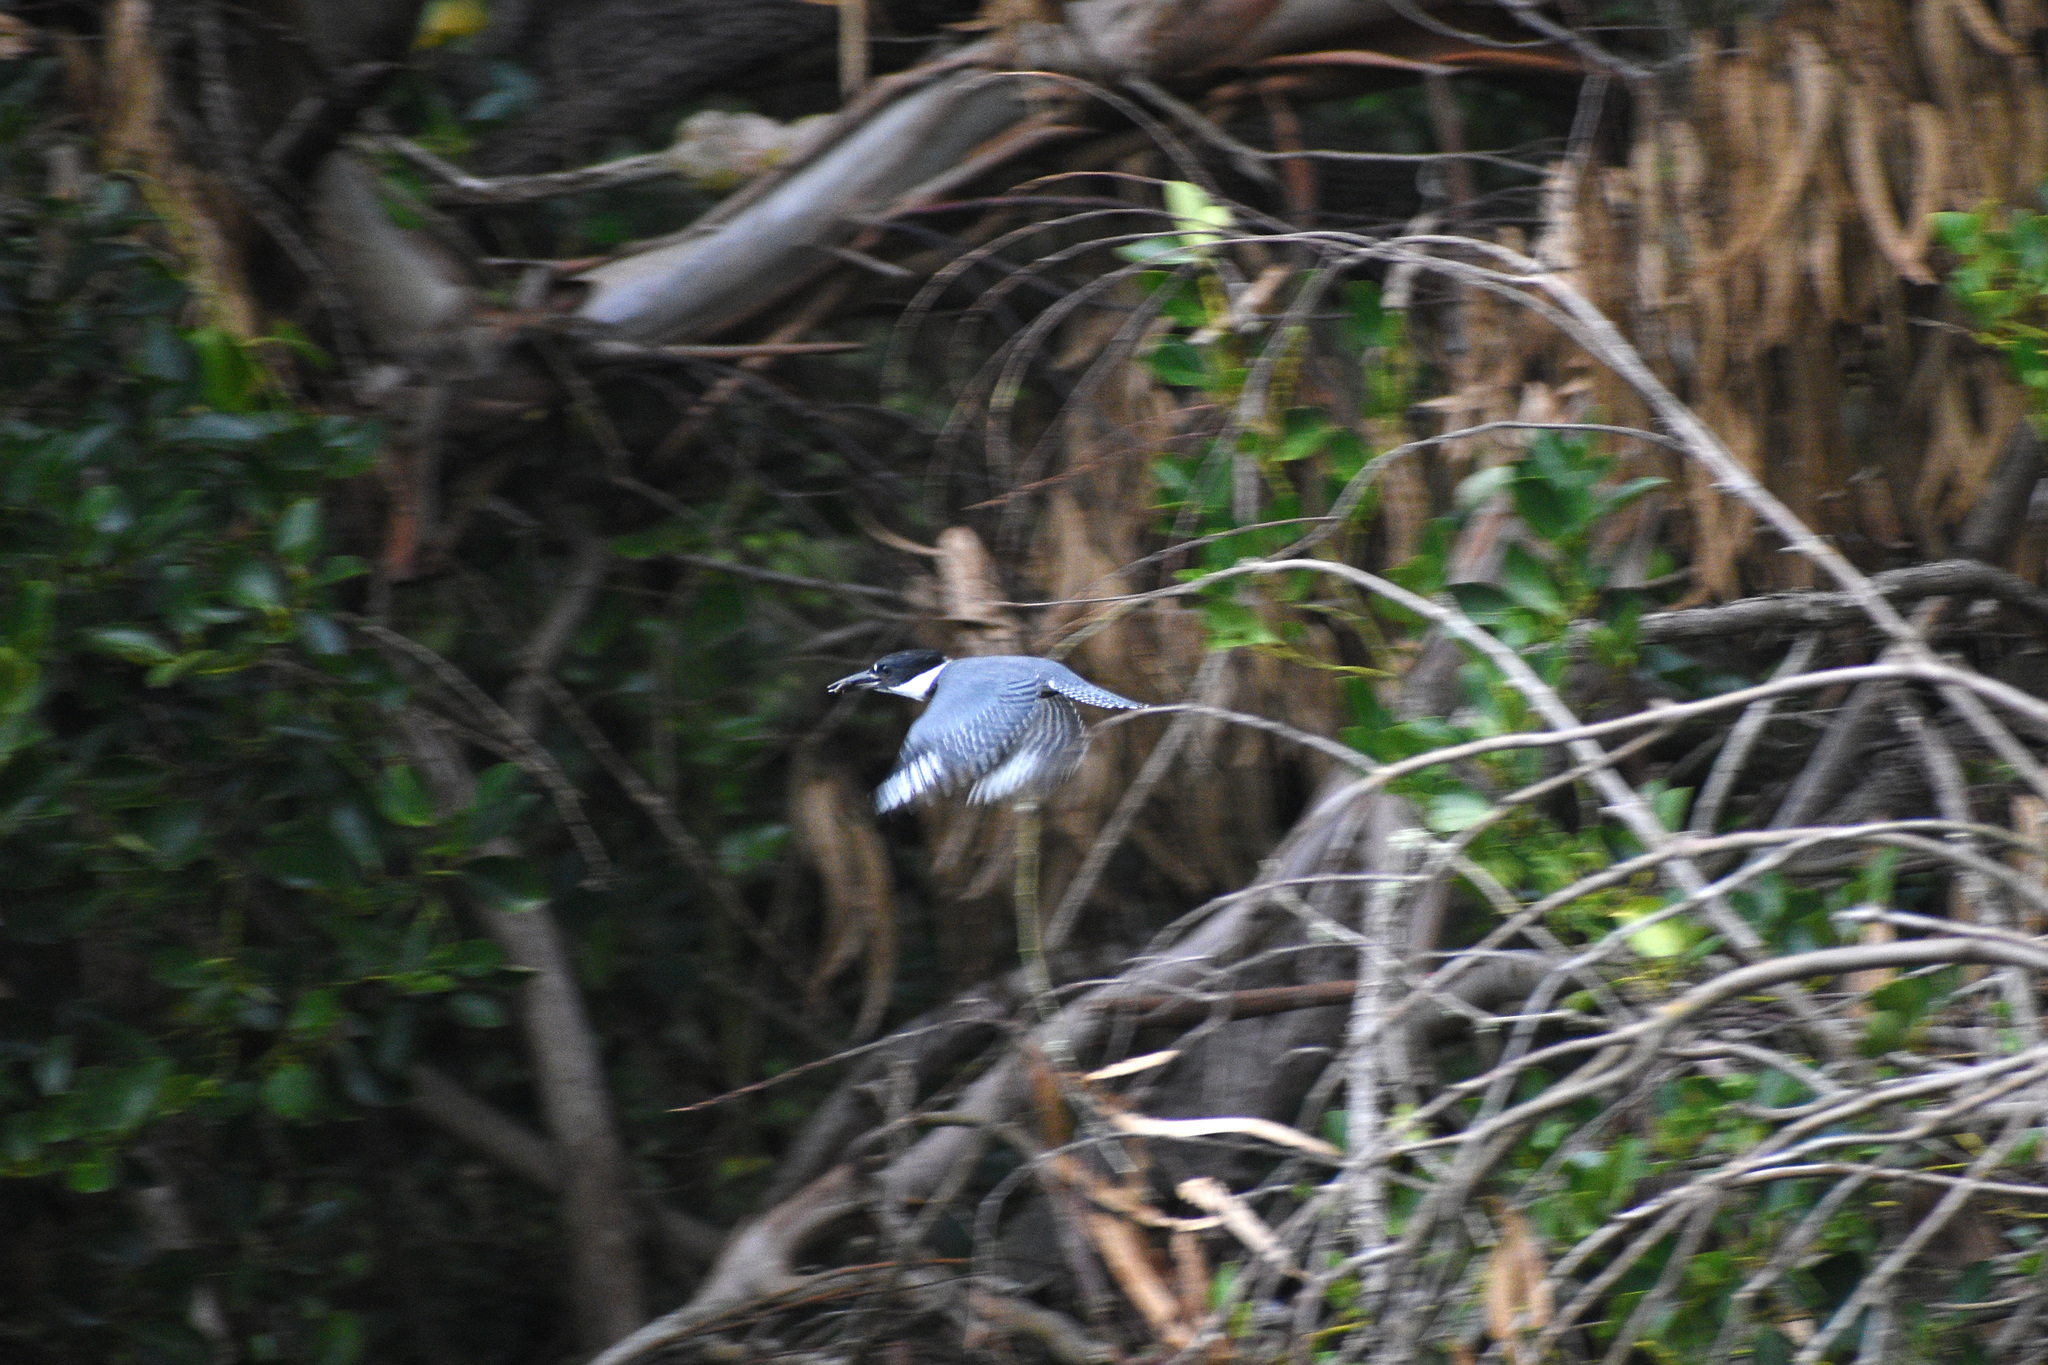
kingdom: Animalia
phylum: Chordata
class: Aves
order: Coraciiformes
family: Alcedinidae
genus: Megaceryle
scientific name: Megaceryle alcyon
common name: Belted kingfisher
